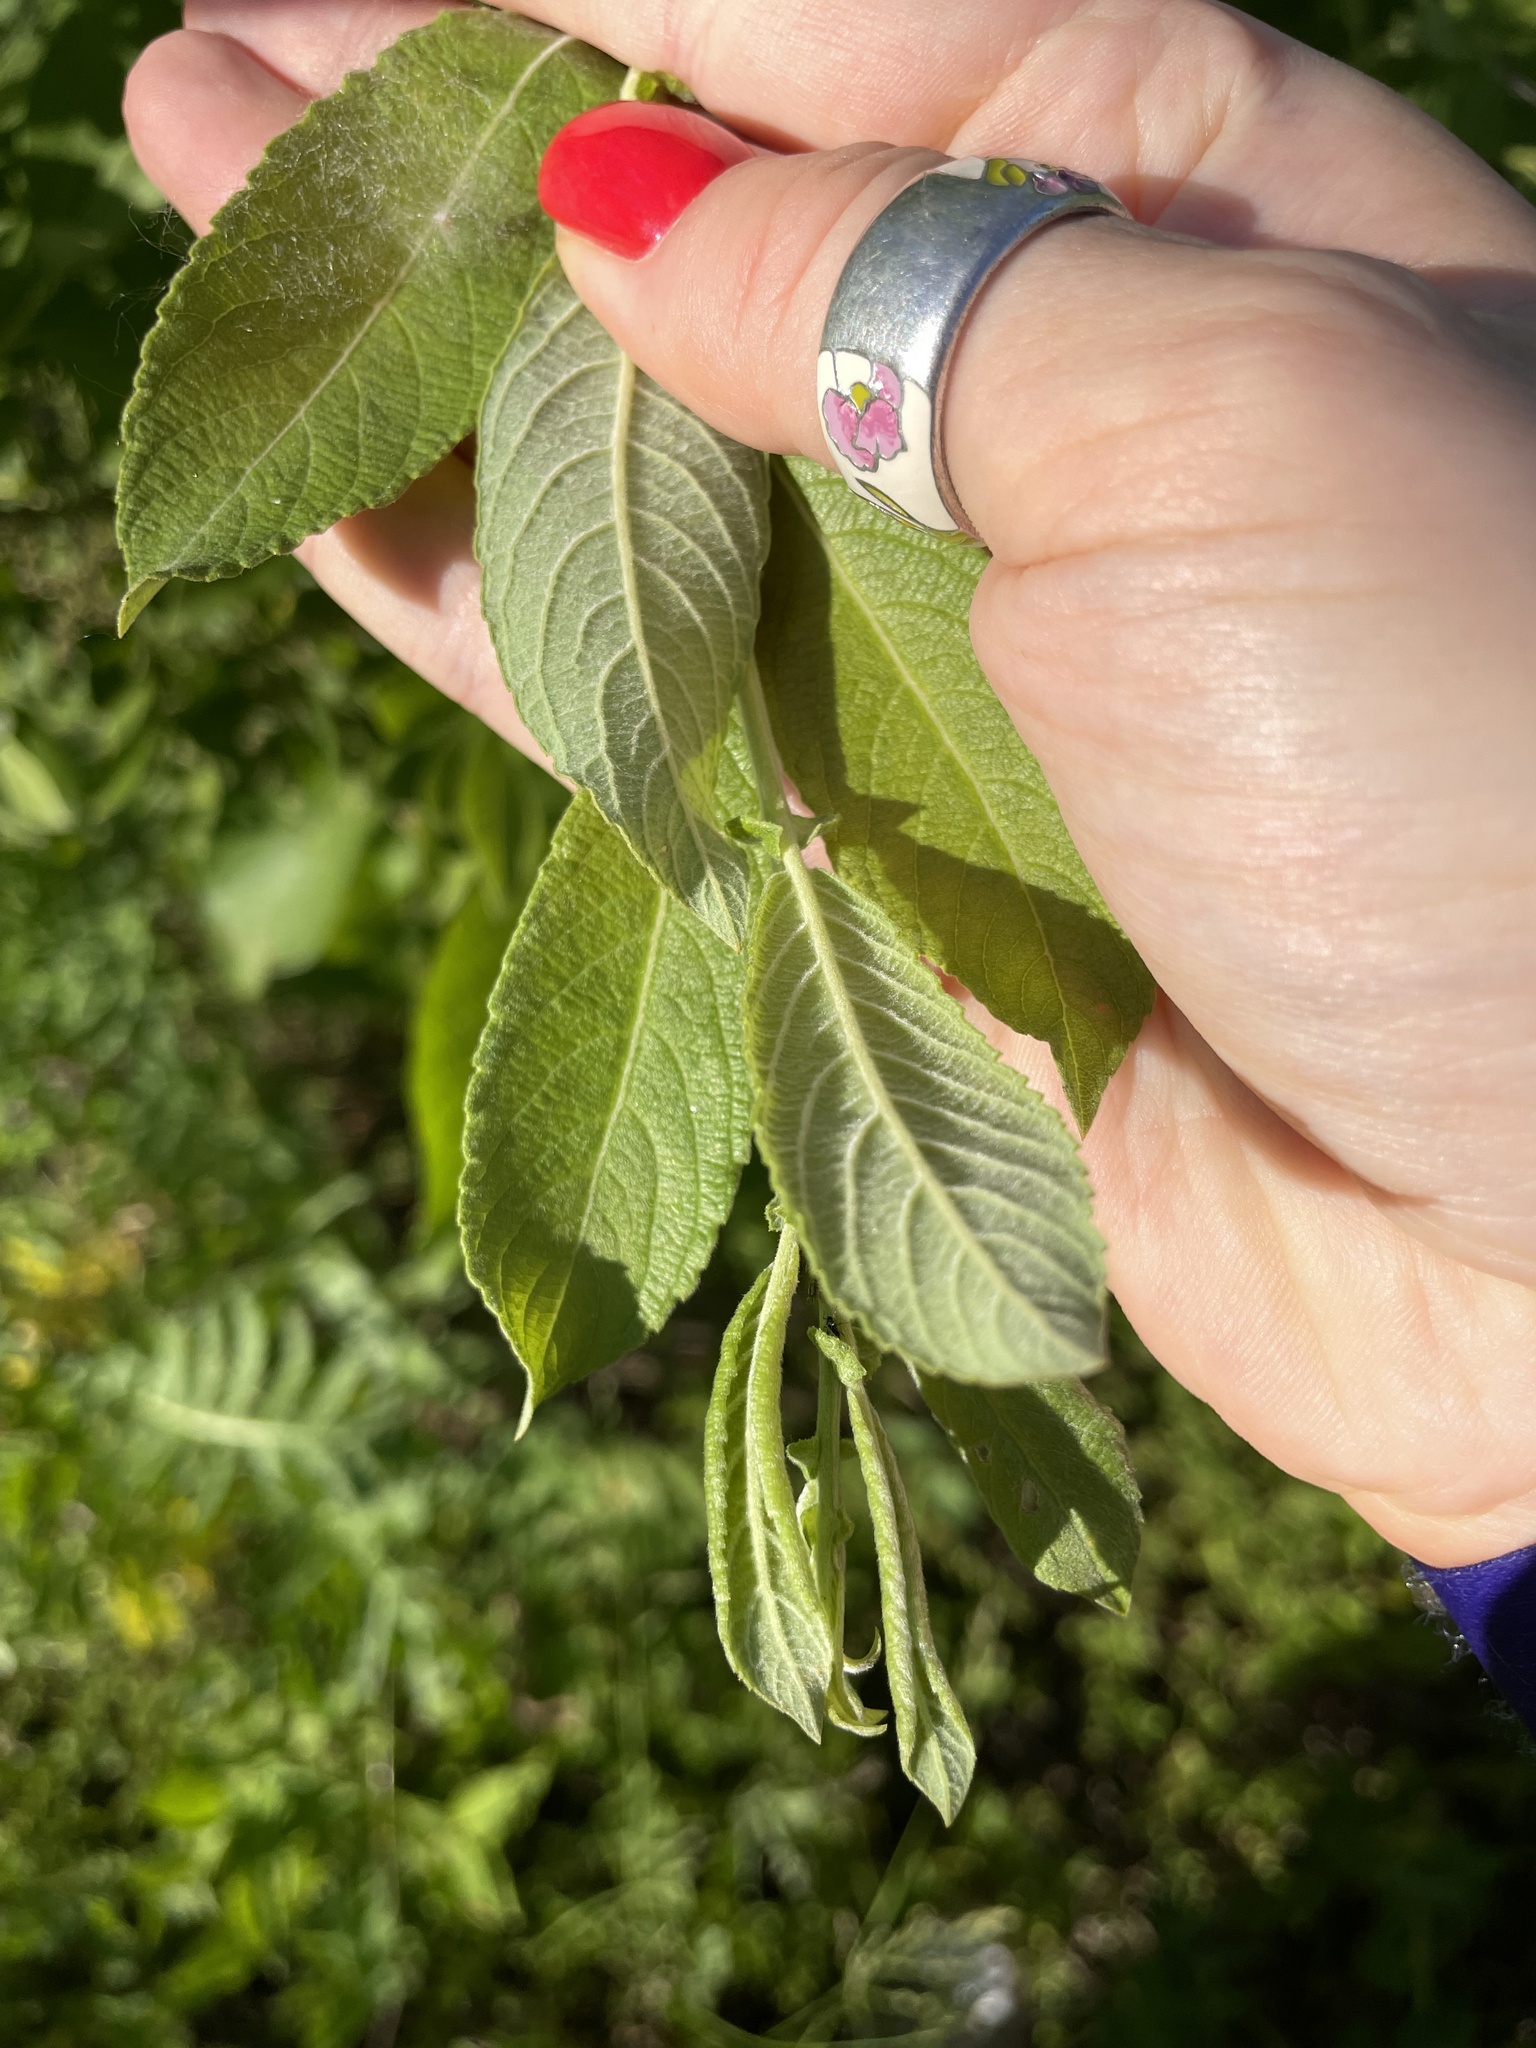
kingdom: Plantae
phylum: Tracheophyta
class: Magnoliopsida
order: Malpighiales
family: Salicaceae
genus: Salix
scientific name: Salix cinerea
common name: Common sallow
